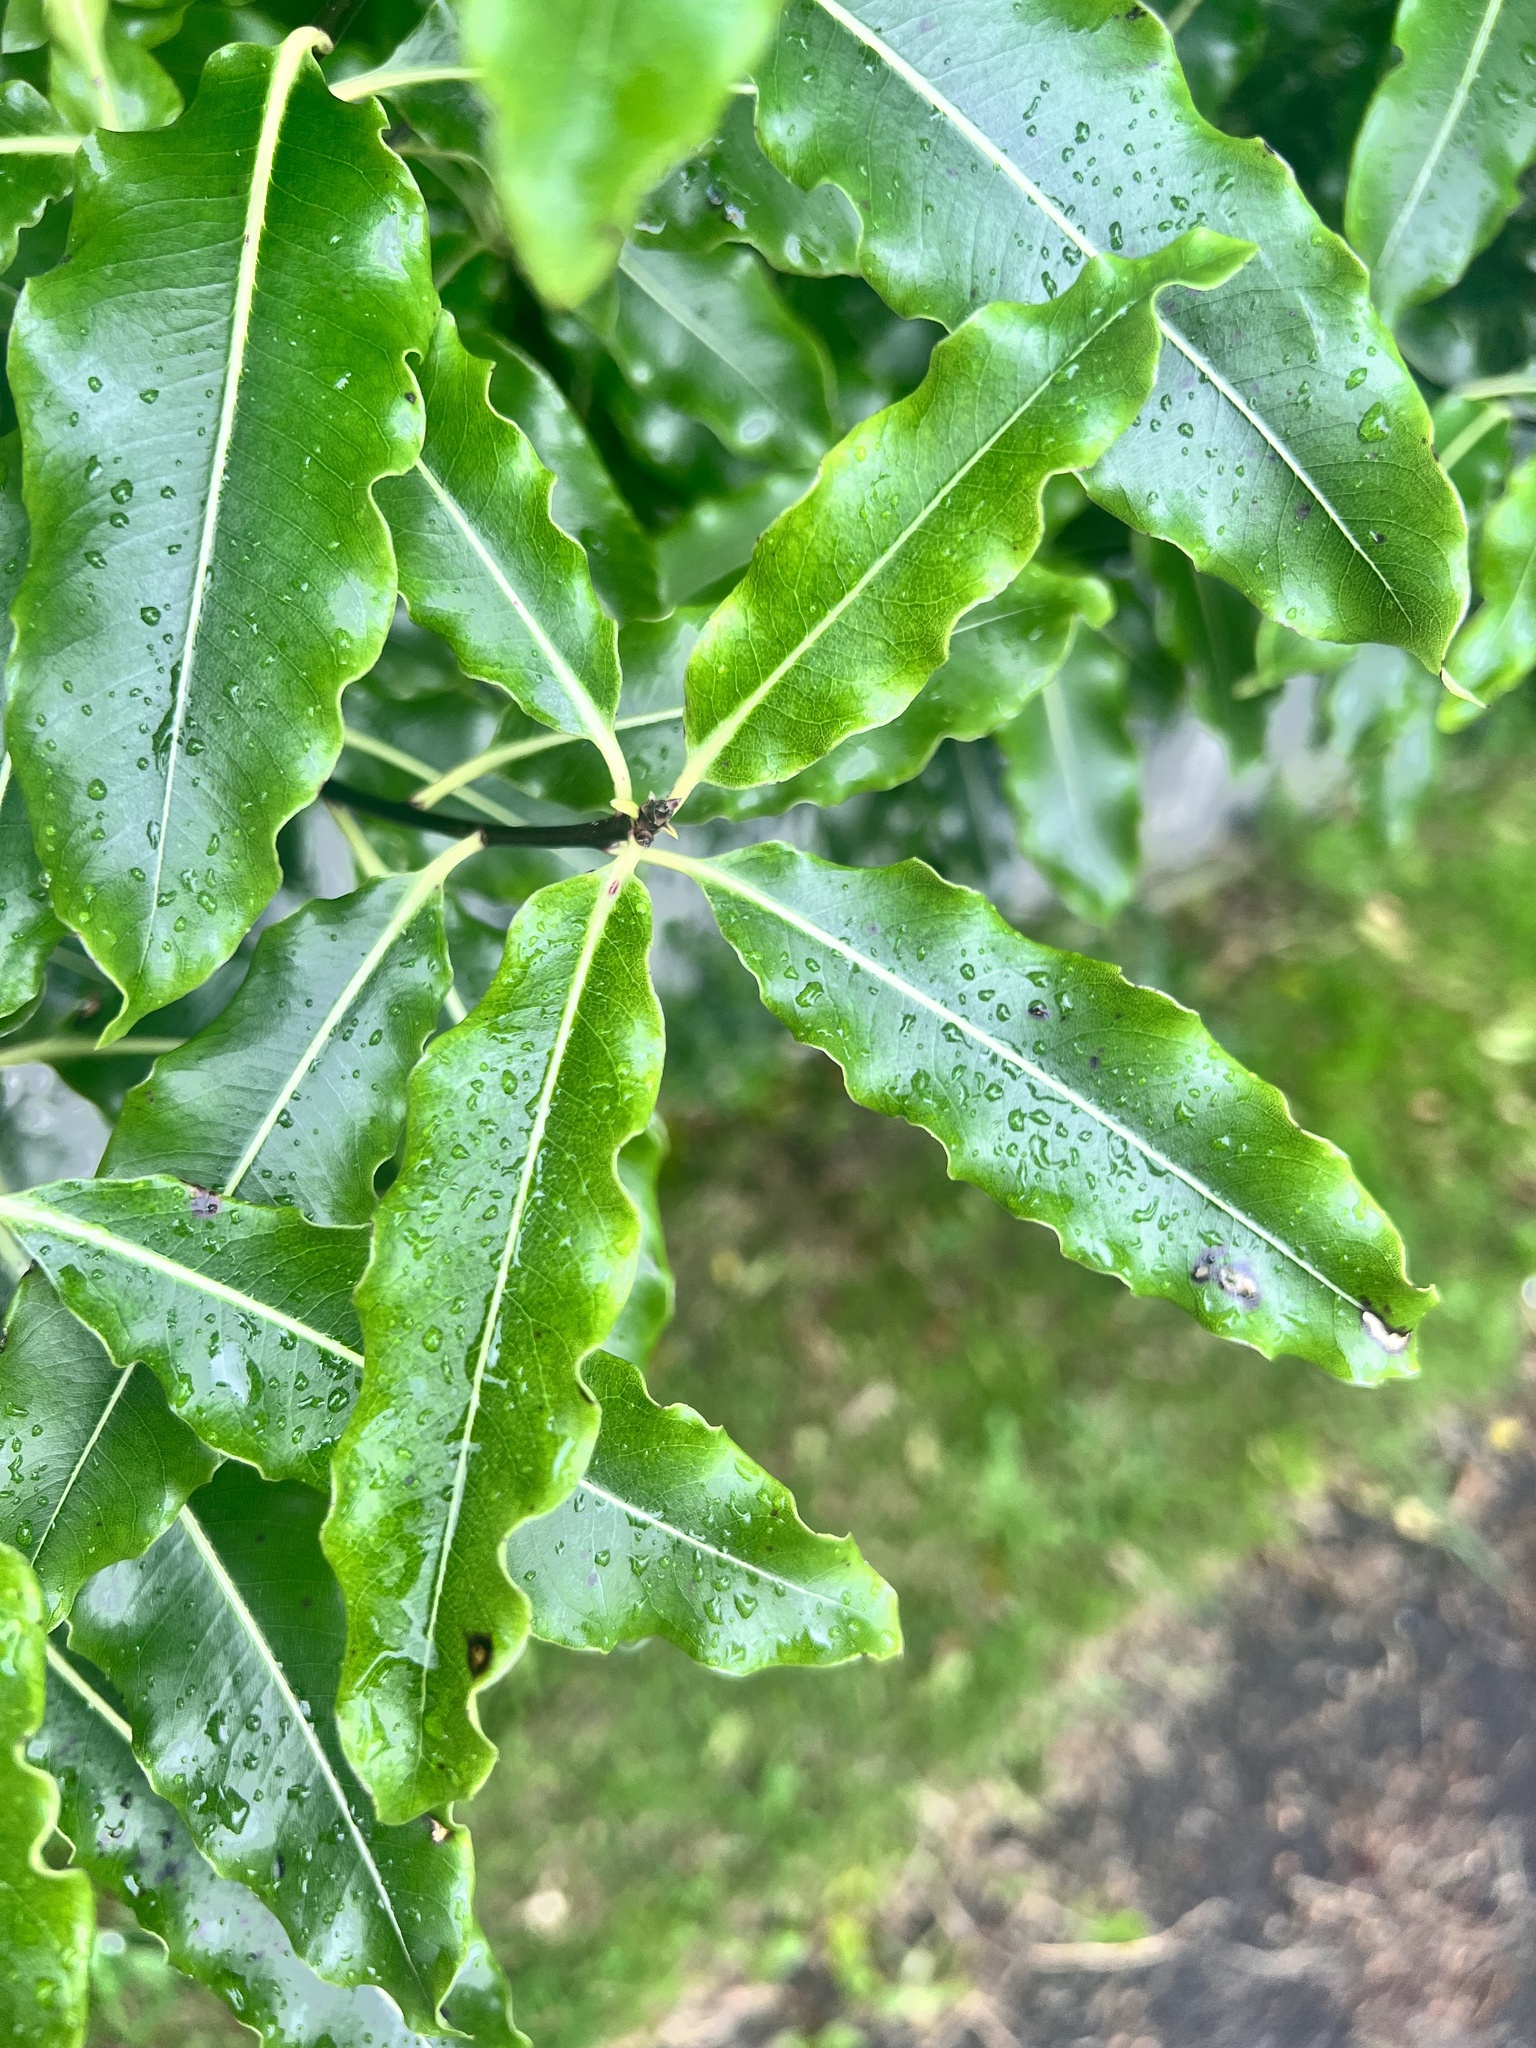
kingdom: Plantae
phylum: Tracheophyta
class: Magnoliopsida
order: Apiales
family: Pittosporaceae
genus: Pittosporum
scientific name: Pittosporum eugenioides
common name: Lemonwood
